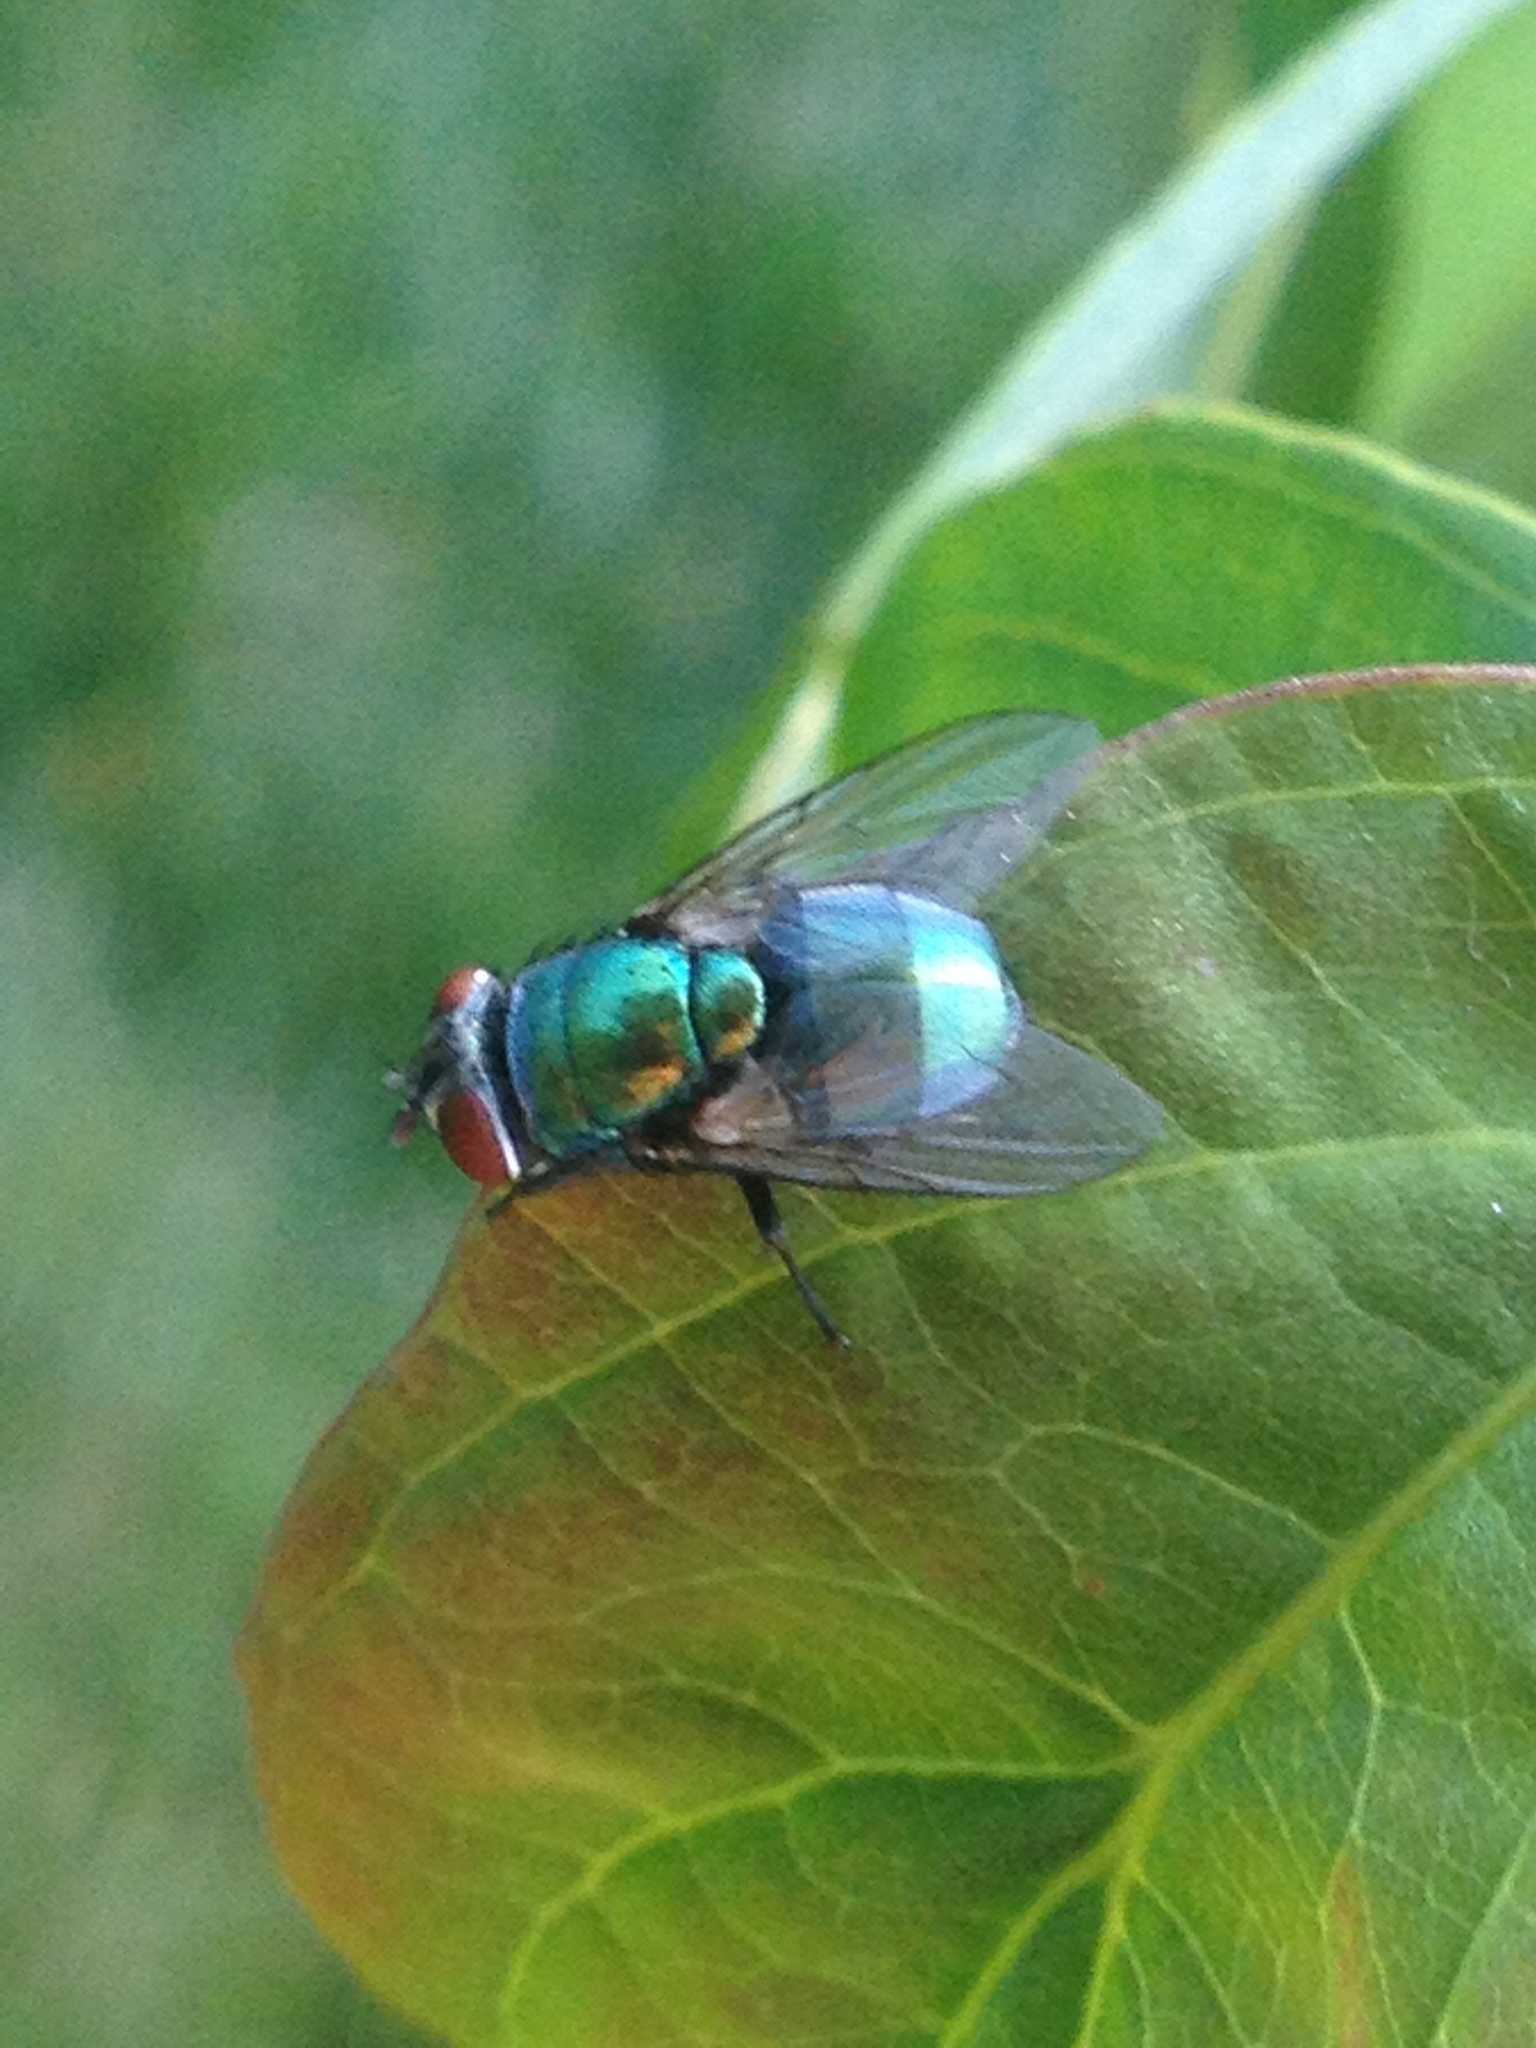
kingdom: Animalia
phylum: Arthropoda
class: Insecta
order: Diptera
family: Calliphoridae
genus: Lucilia
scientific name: Lucilia sericata
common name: Blow fly
